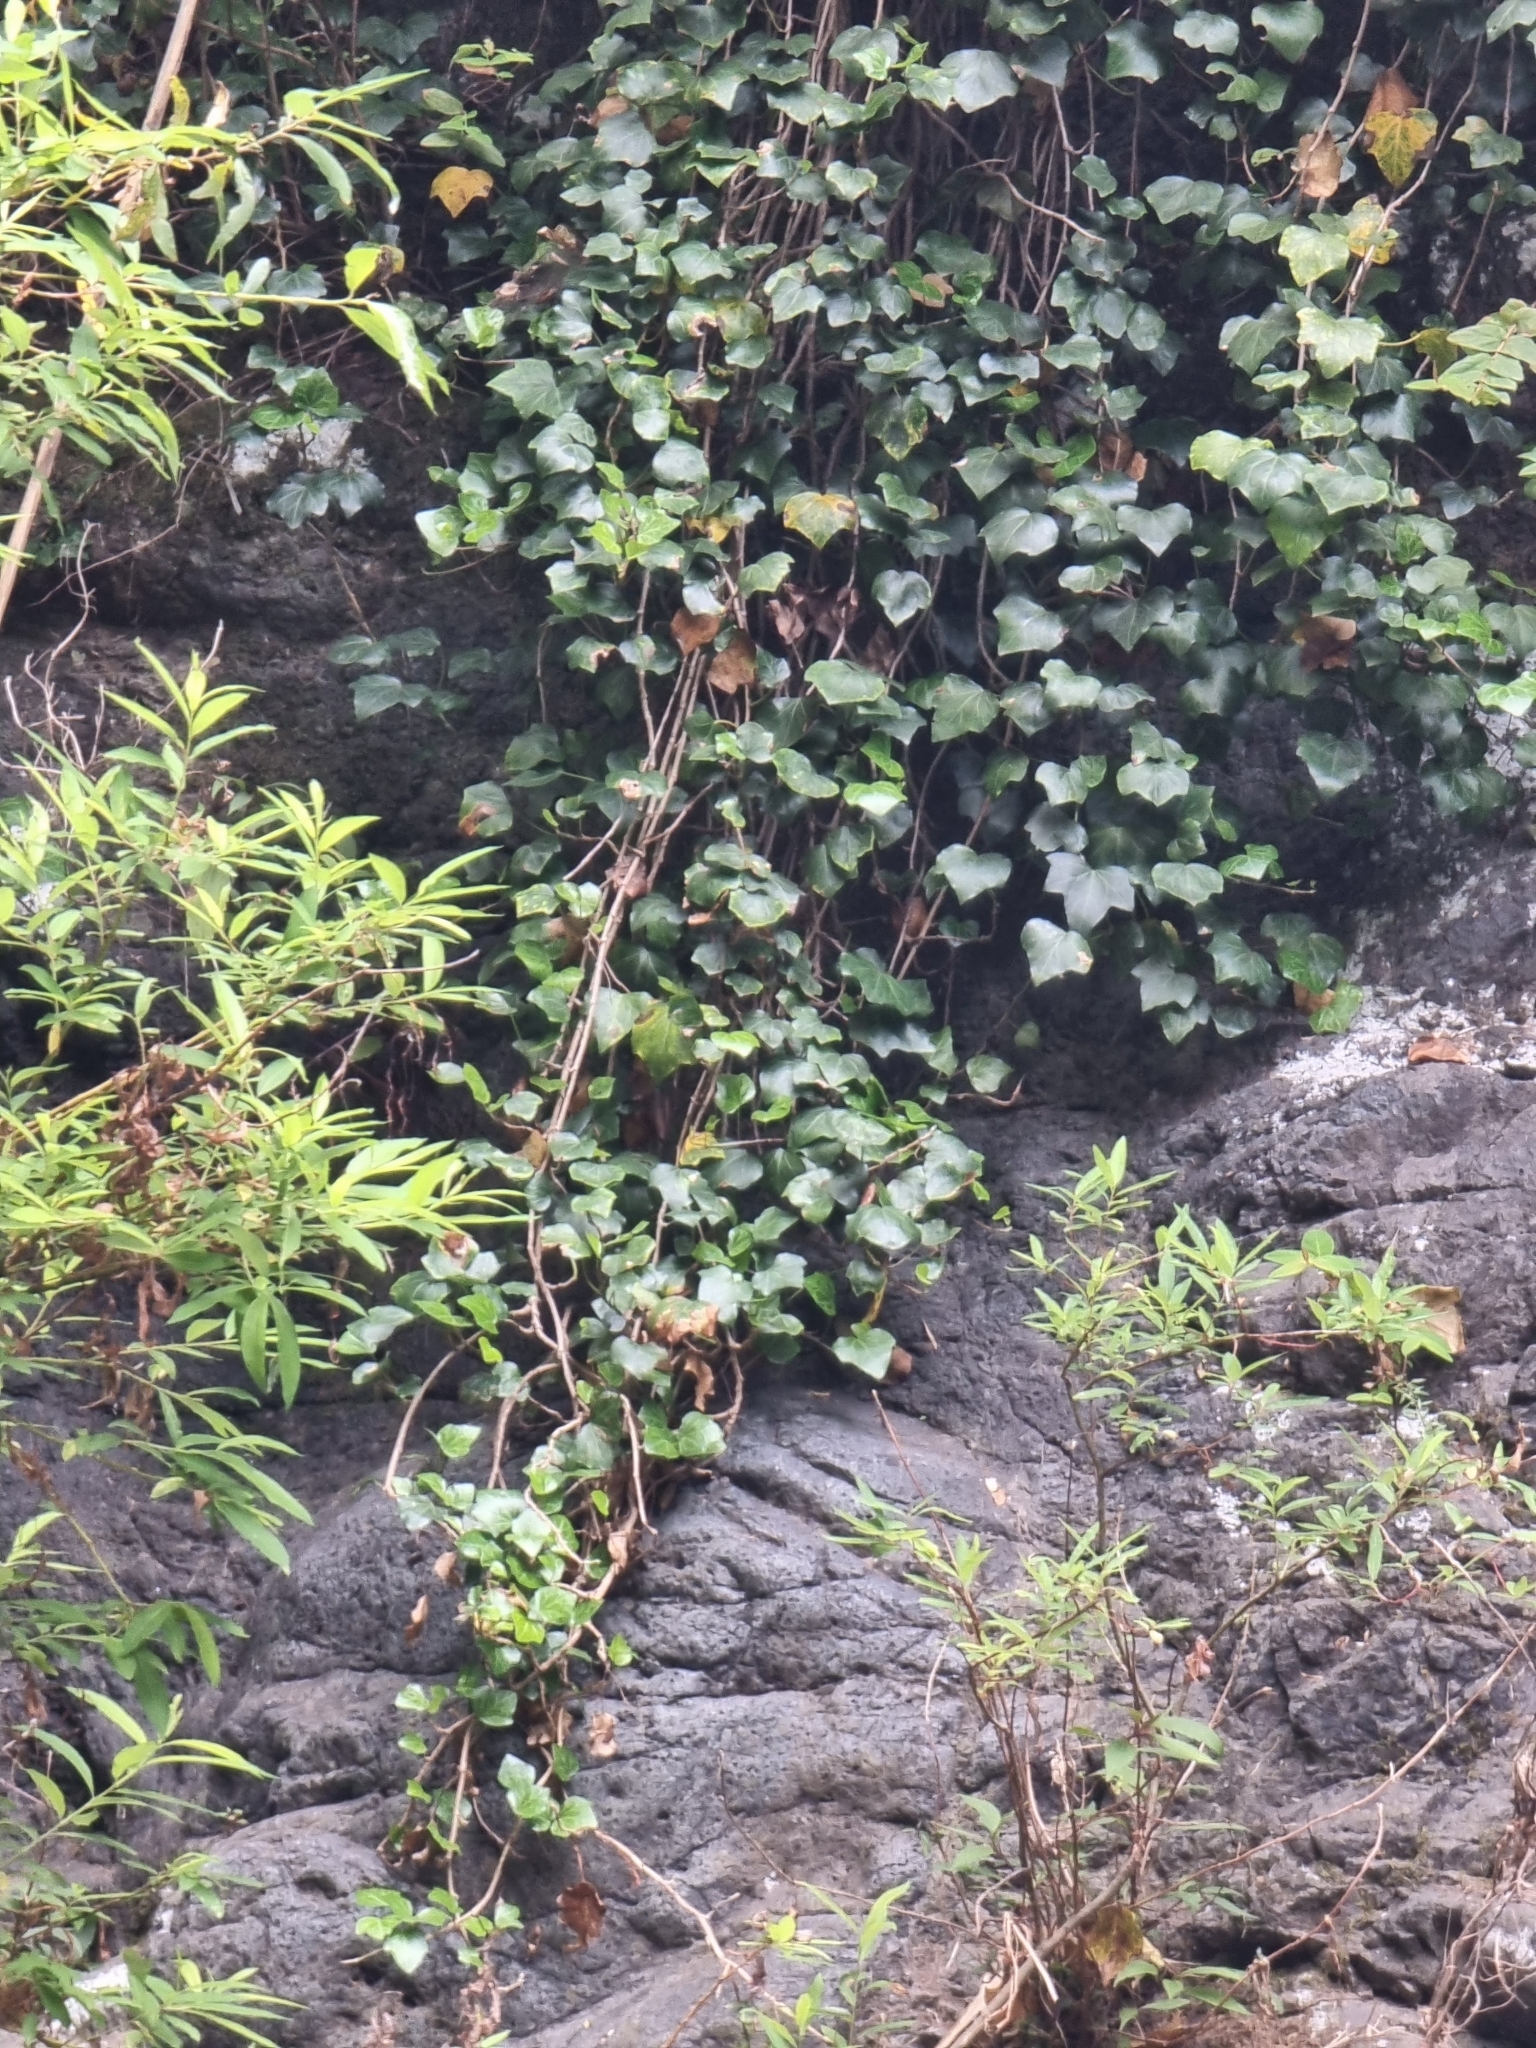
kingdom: Plantae
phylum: Tracheophyta
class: Magnoliopsida
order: Apiales
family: Araliaceae
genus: Hedera
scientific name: Hedera maderensis
